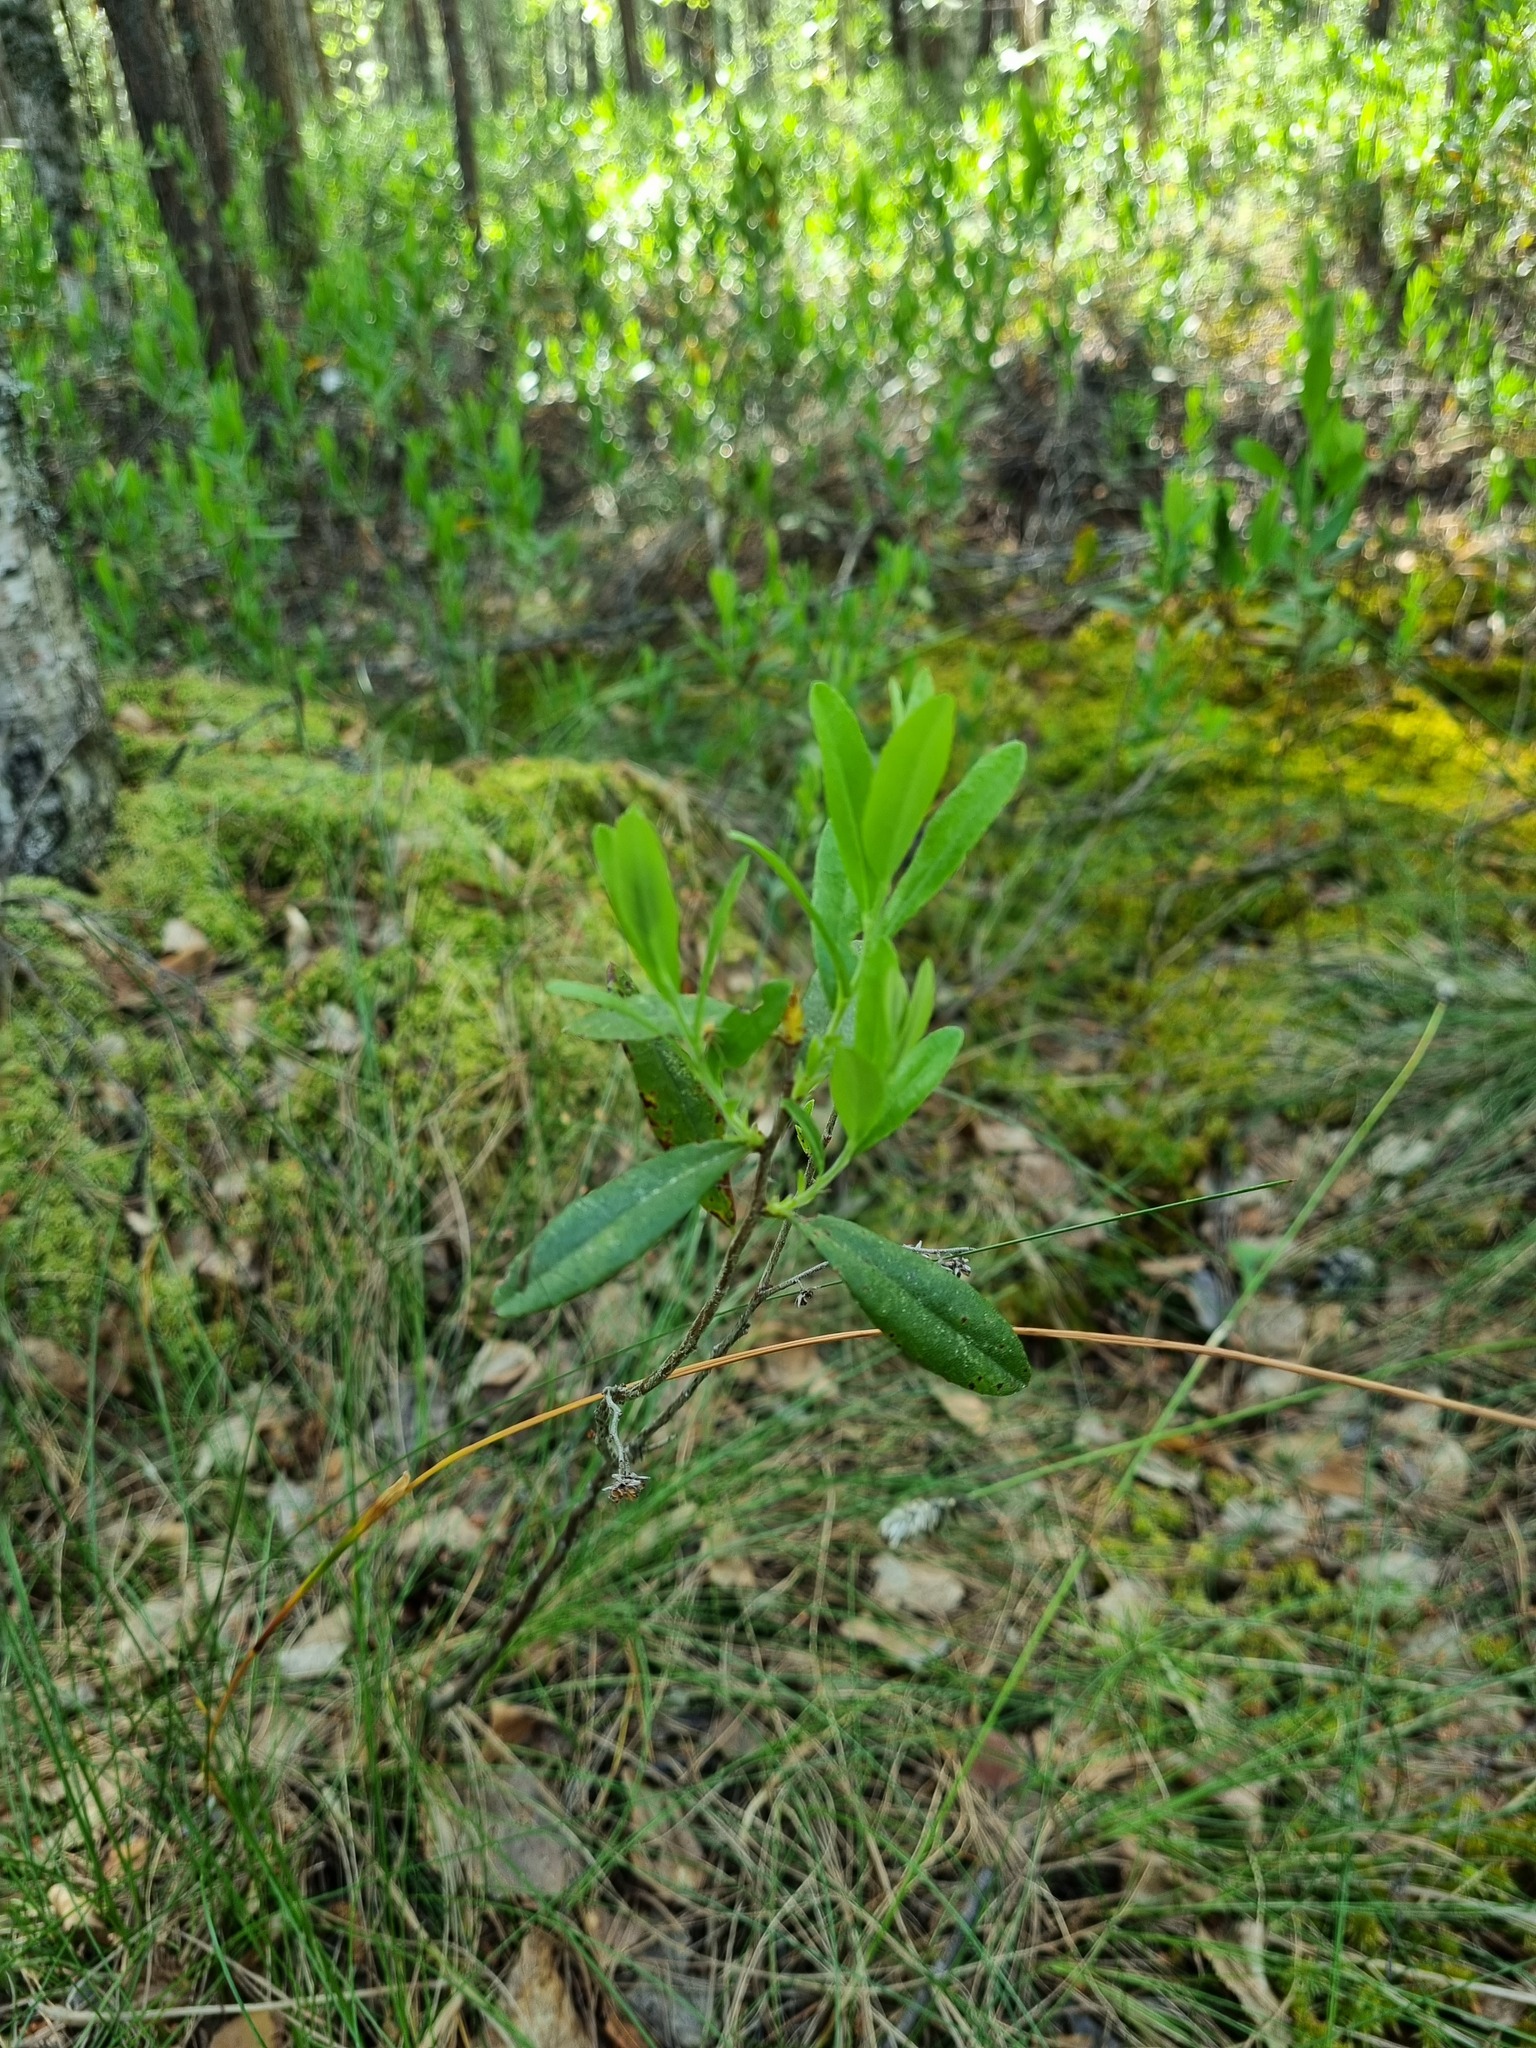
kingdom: Plantae
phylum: Tracheophyta
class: Magnoliopsida
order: Ericales
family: Ericaceae
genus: Chamaedaphne
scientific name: Chamaedaphne calyculata
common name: Leatherleaf
